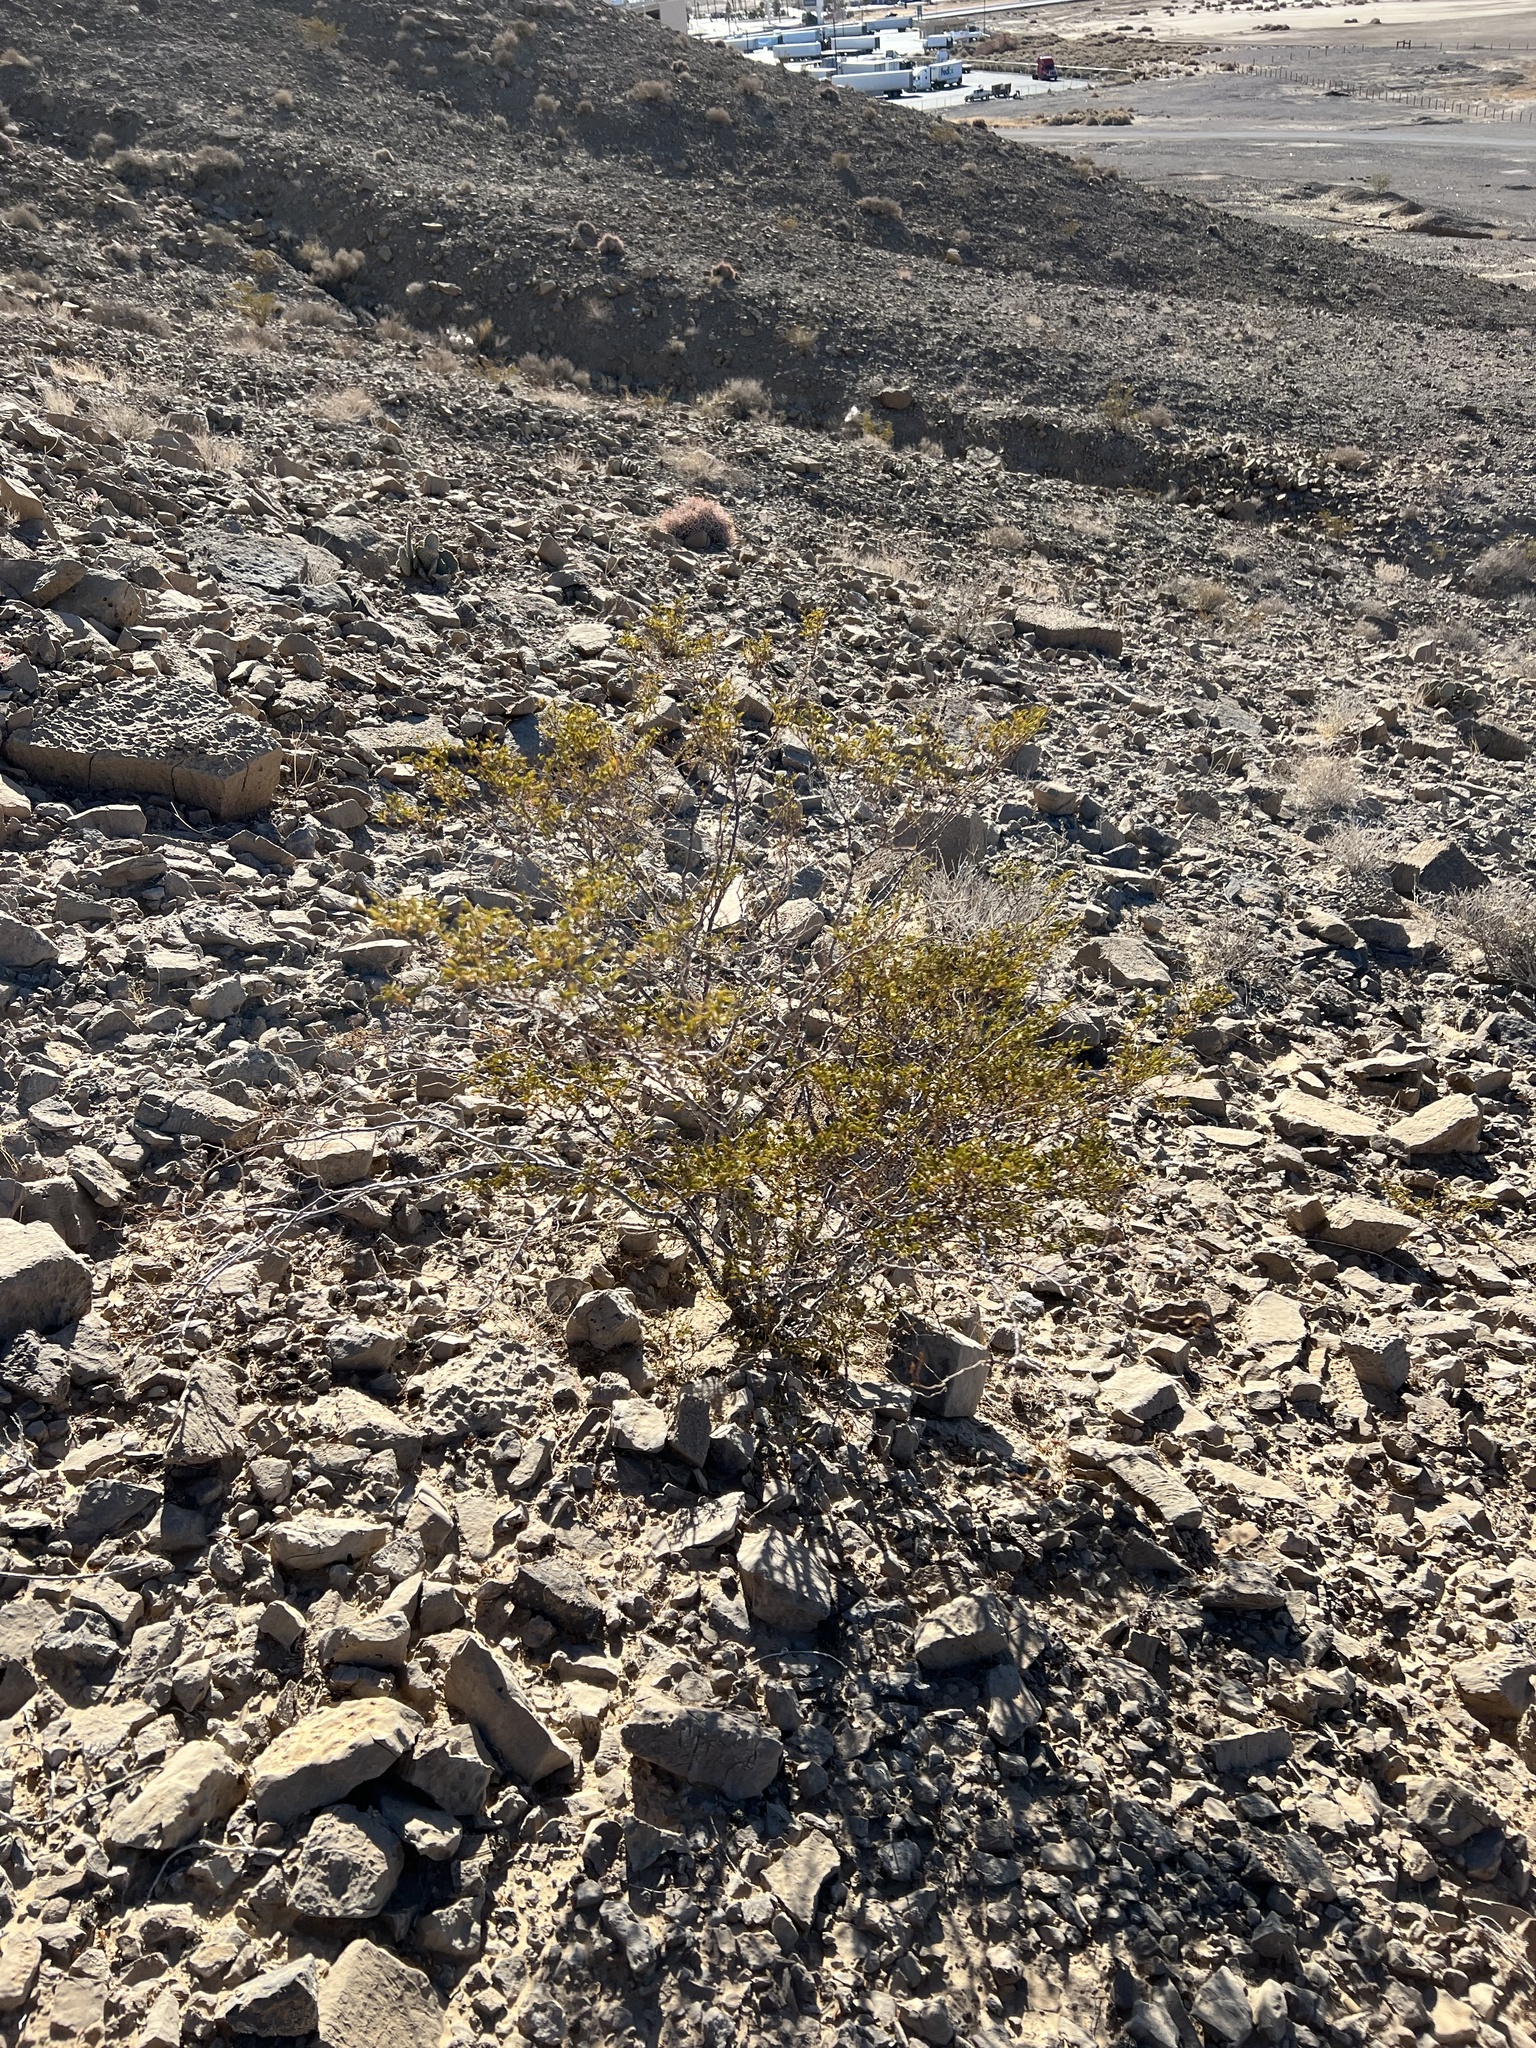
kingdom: Plantae
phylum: Tracheophyta
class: Magnoliopsida
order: Zygophyllales
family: Zygophyllaceae
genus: Larrea
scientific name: Larrea tridentata
